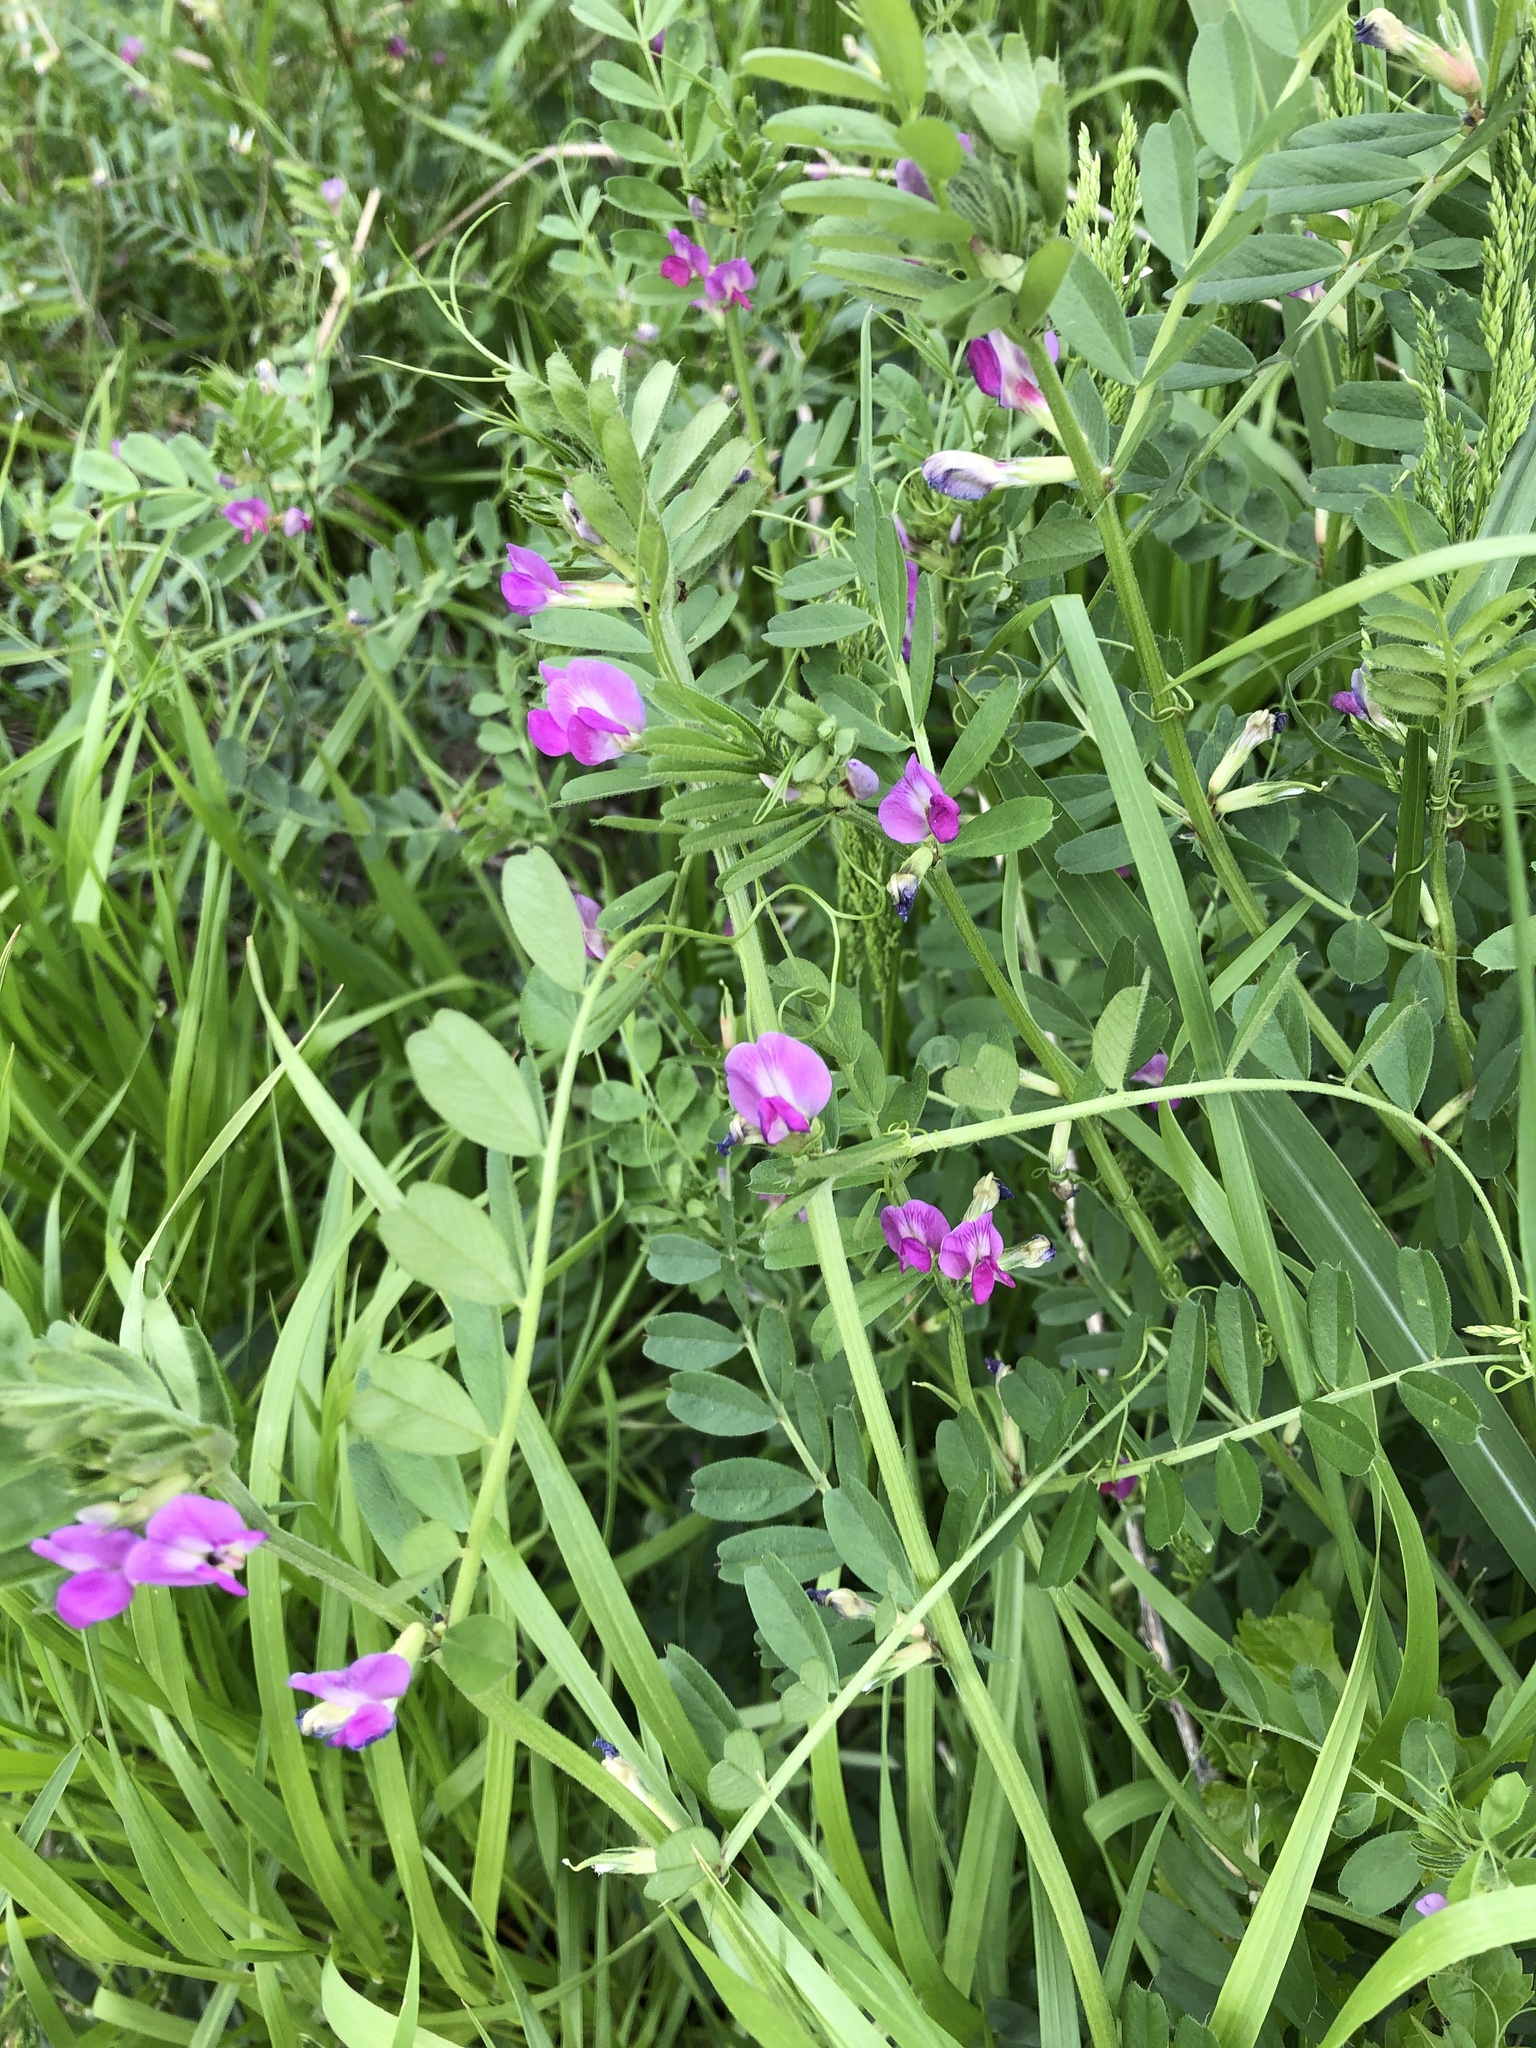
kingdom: Plantae
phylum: Tracheophyta
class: Magnoliopsida
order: Fabales
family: Fabaceae
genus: Vicia
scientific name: Vicia sativa
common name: Garden vetch
